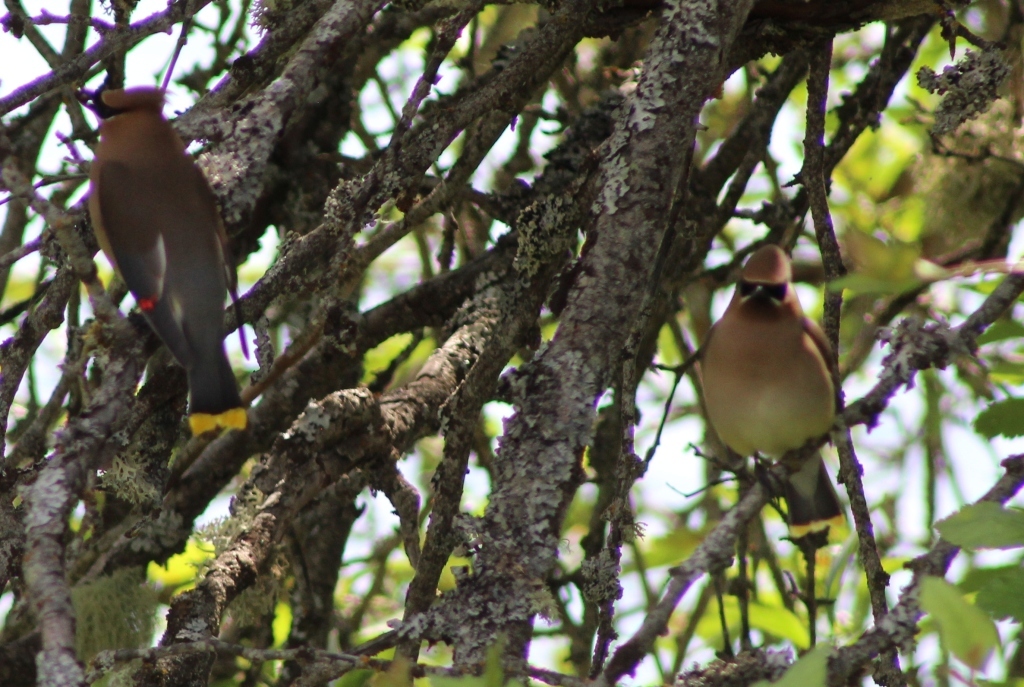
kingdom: Animalia
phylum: Chordata
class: Aves
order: Passeriformes
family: Bombycillidae
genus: Bombycilla
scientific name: Bombycilla cedrorum
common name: Cedar waxwing
